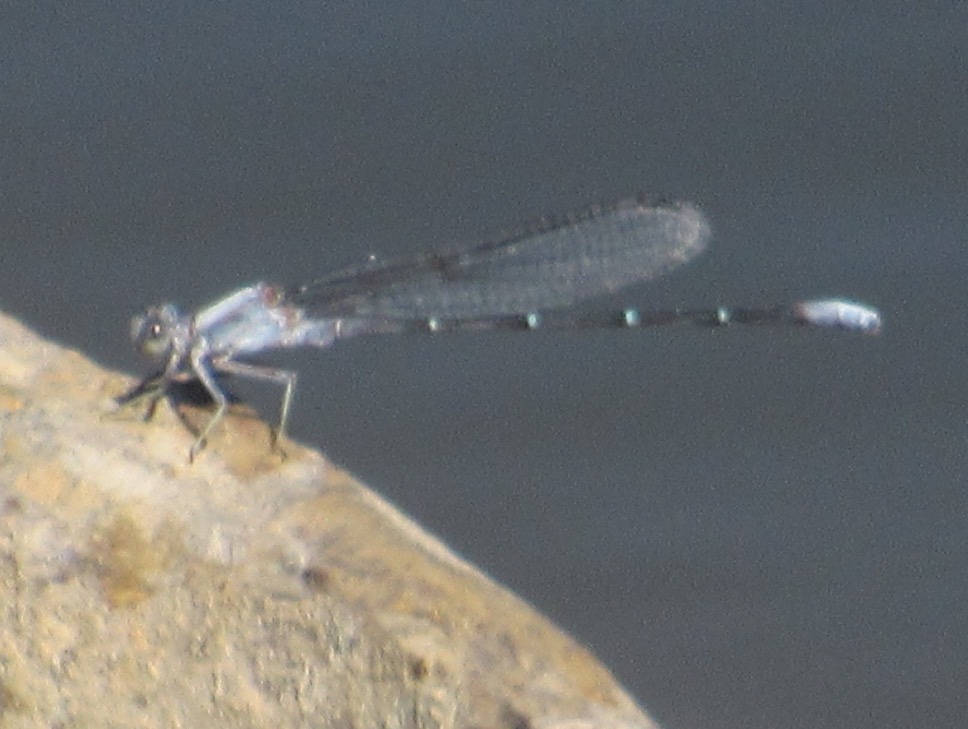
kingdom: Animalia
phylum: Arthropoda
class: Insecta
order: Odonata
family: Coenagrionidae
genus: Argia
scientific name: Argia moesta
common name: Powdered dancer
